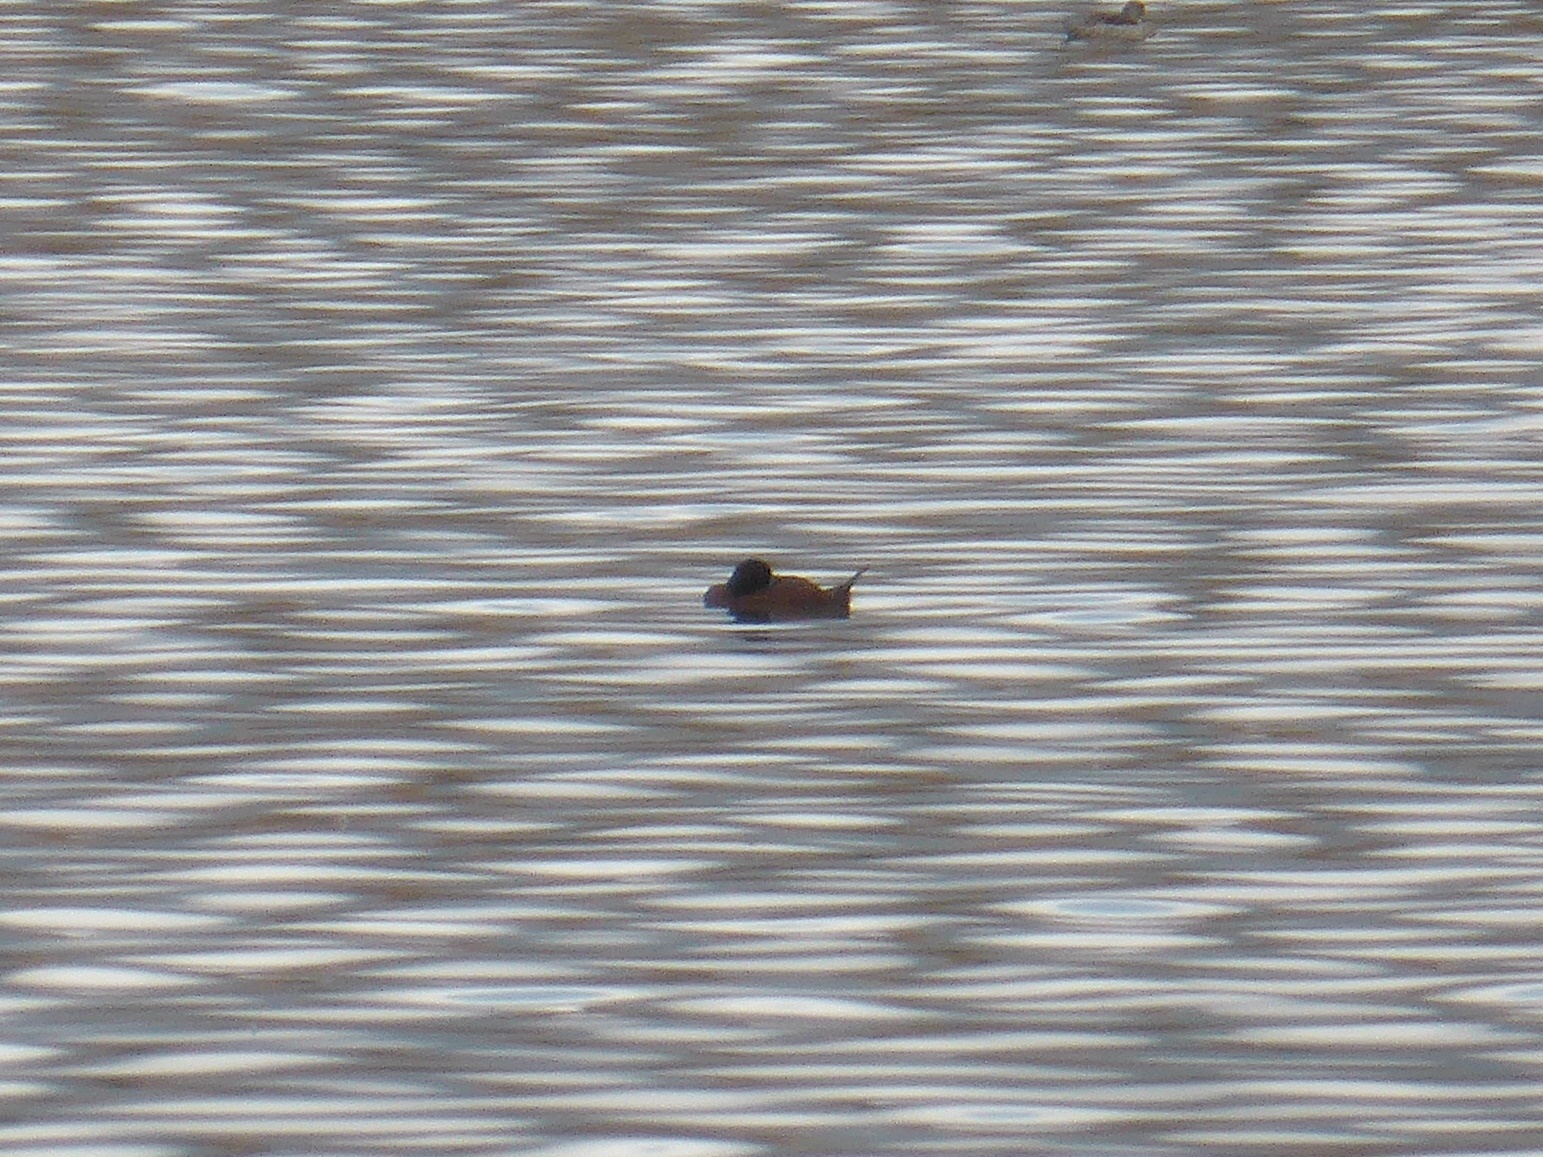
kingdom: Animalia
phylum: Chordata
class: Aves
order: Anseriformes
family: Anatidae
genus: Oxyura
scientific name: Oxyura maccoa
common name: Maccoa duck
